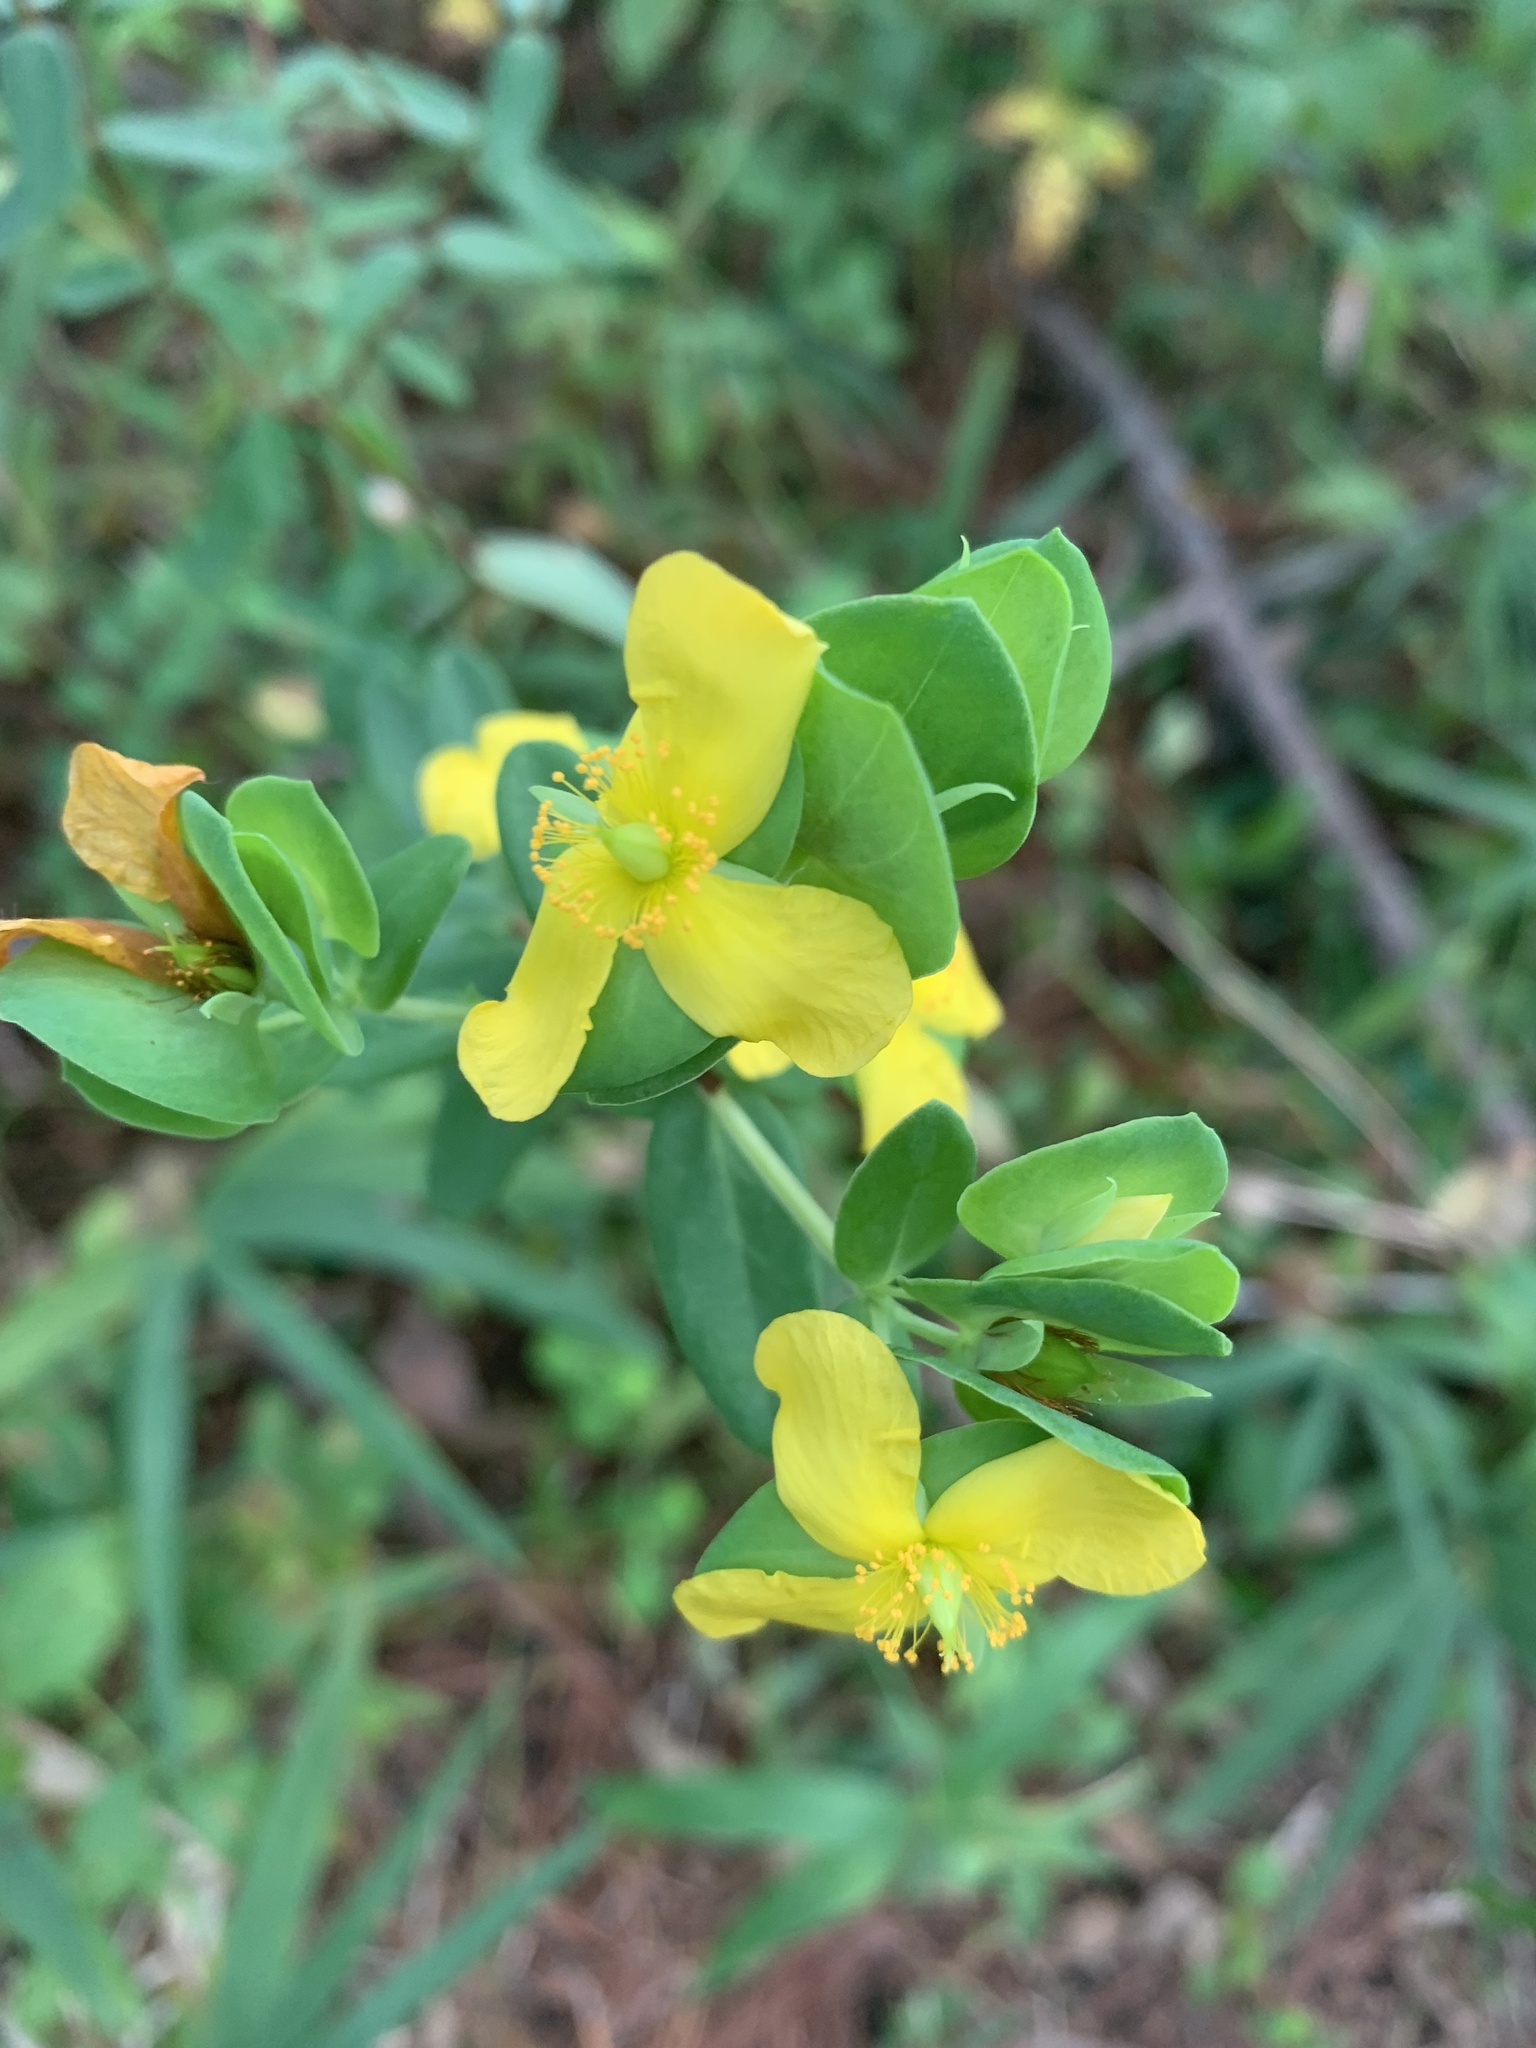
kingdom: Plantae
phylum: Tracheophyta
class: Magnoliopsida
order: Malpighiales
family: Hypericaceae
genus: Hypericum
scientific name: Hypericum hypericoides
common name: St. andrew's cross
